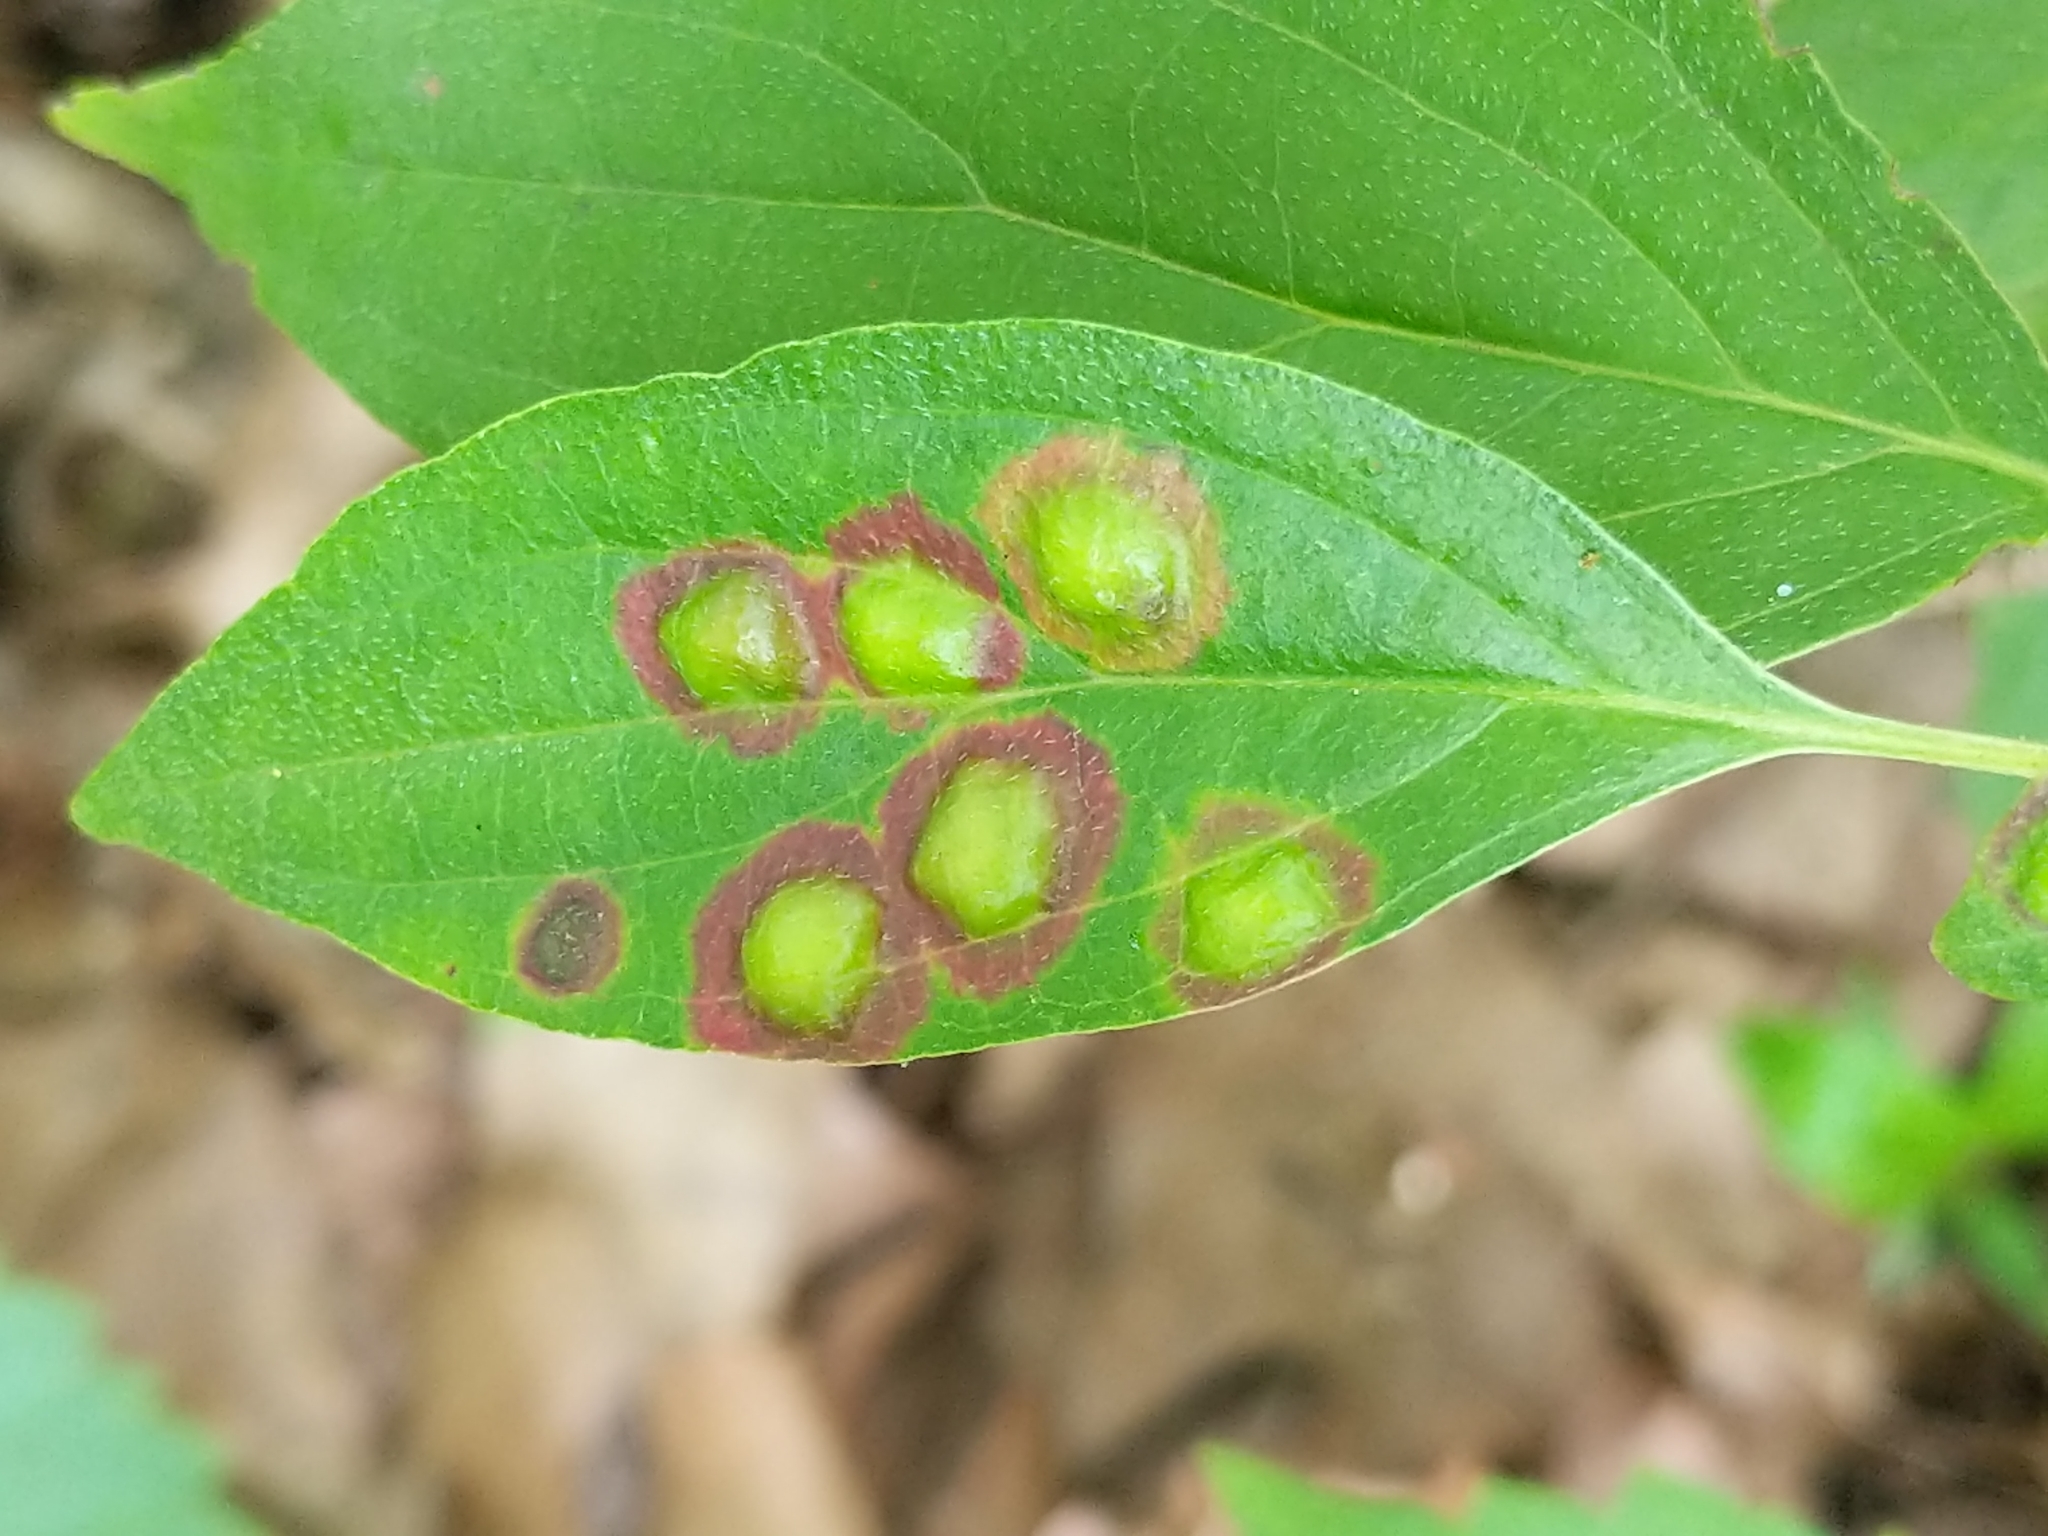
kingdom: Animalia
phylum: Arthropoda
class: Insecta
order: Diptera
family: Cecidomyiidae
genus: Parallelodiplosis
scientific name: Parallelodiplosis subtruncata
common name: Dogwood eyespot gall midge
